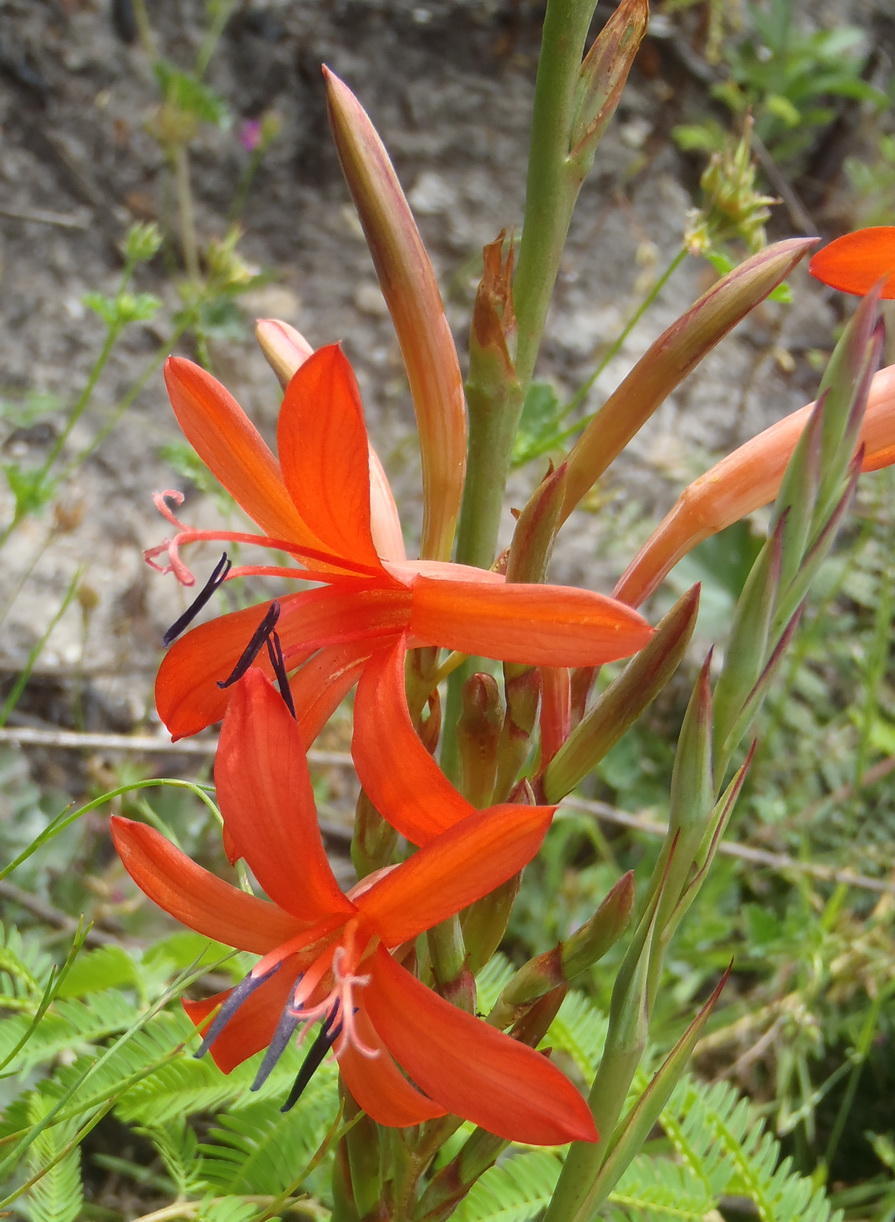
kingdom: Plantae
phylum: Tracheophyta
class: Liliopsida
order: Asparagales
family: Iridaceae
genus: Watsonia
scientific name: Watsonia angusta
